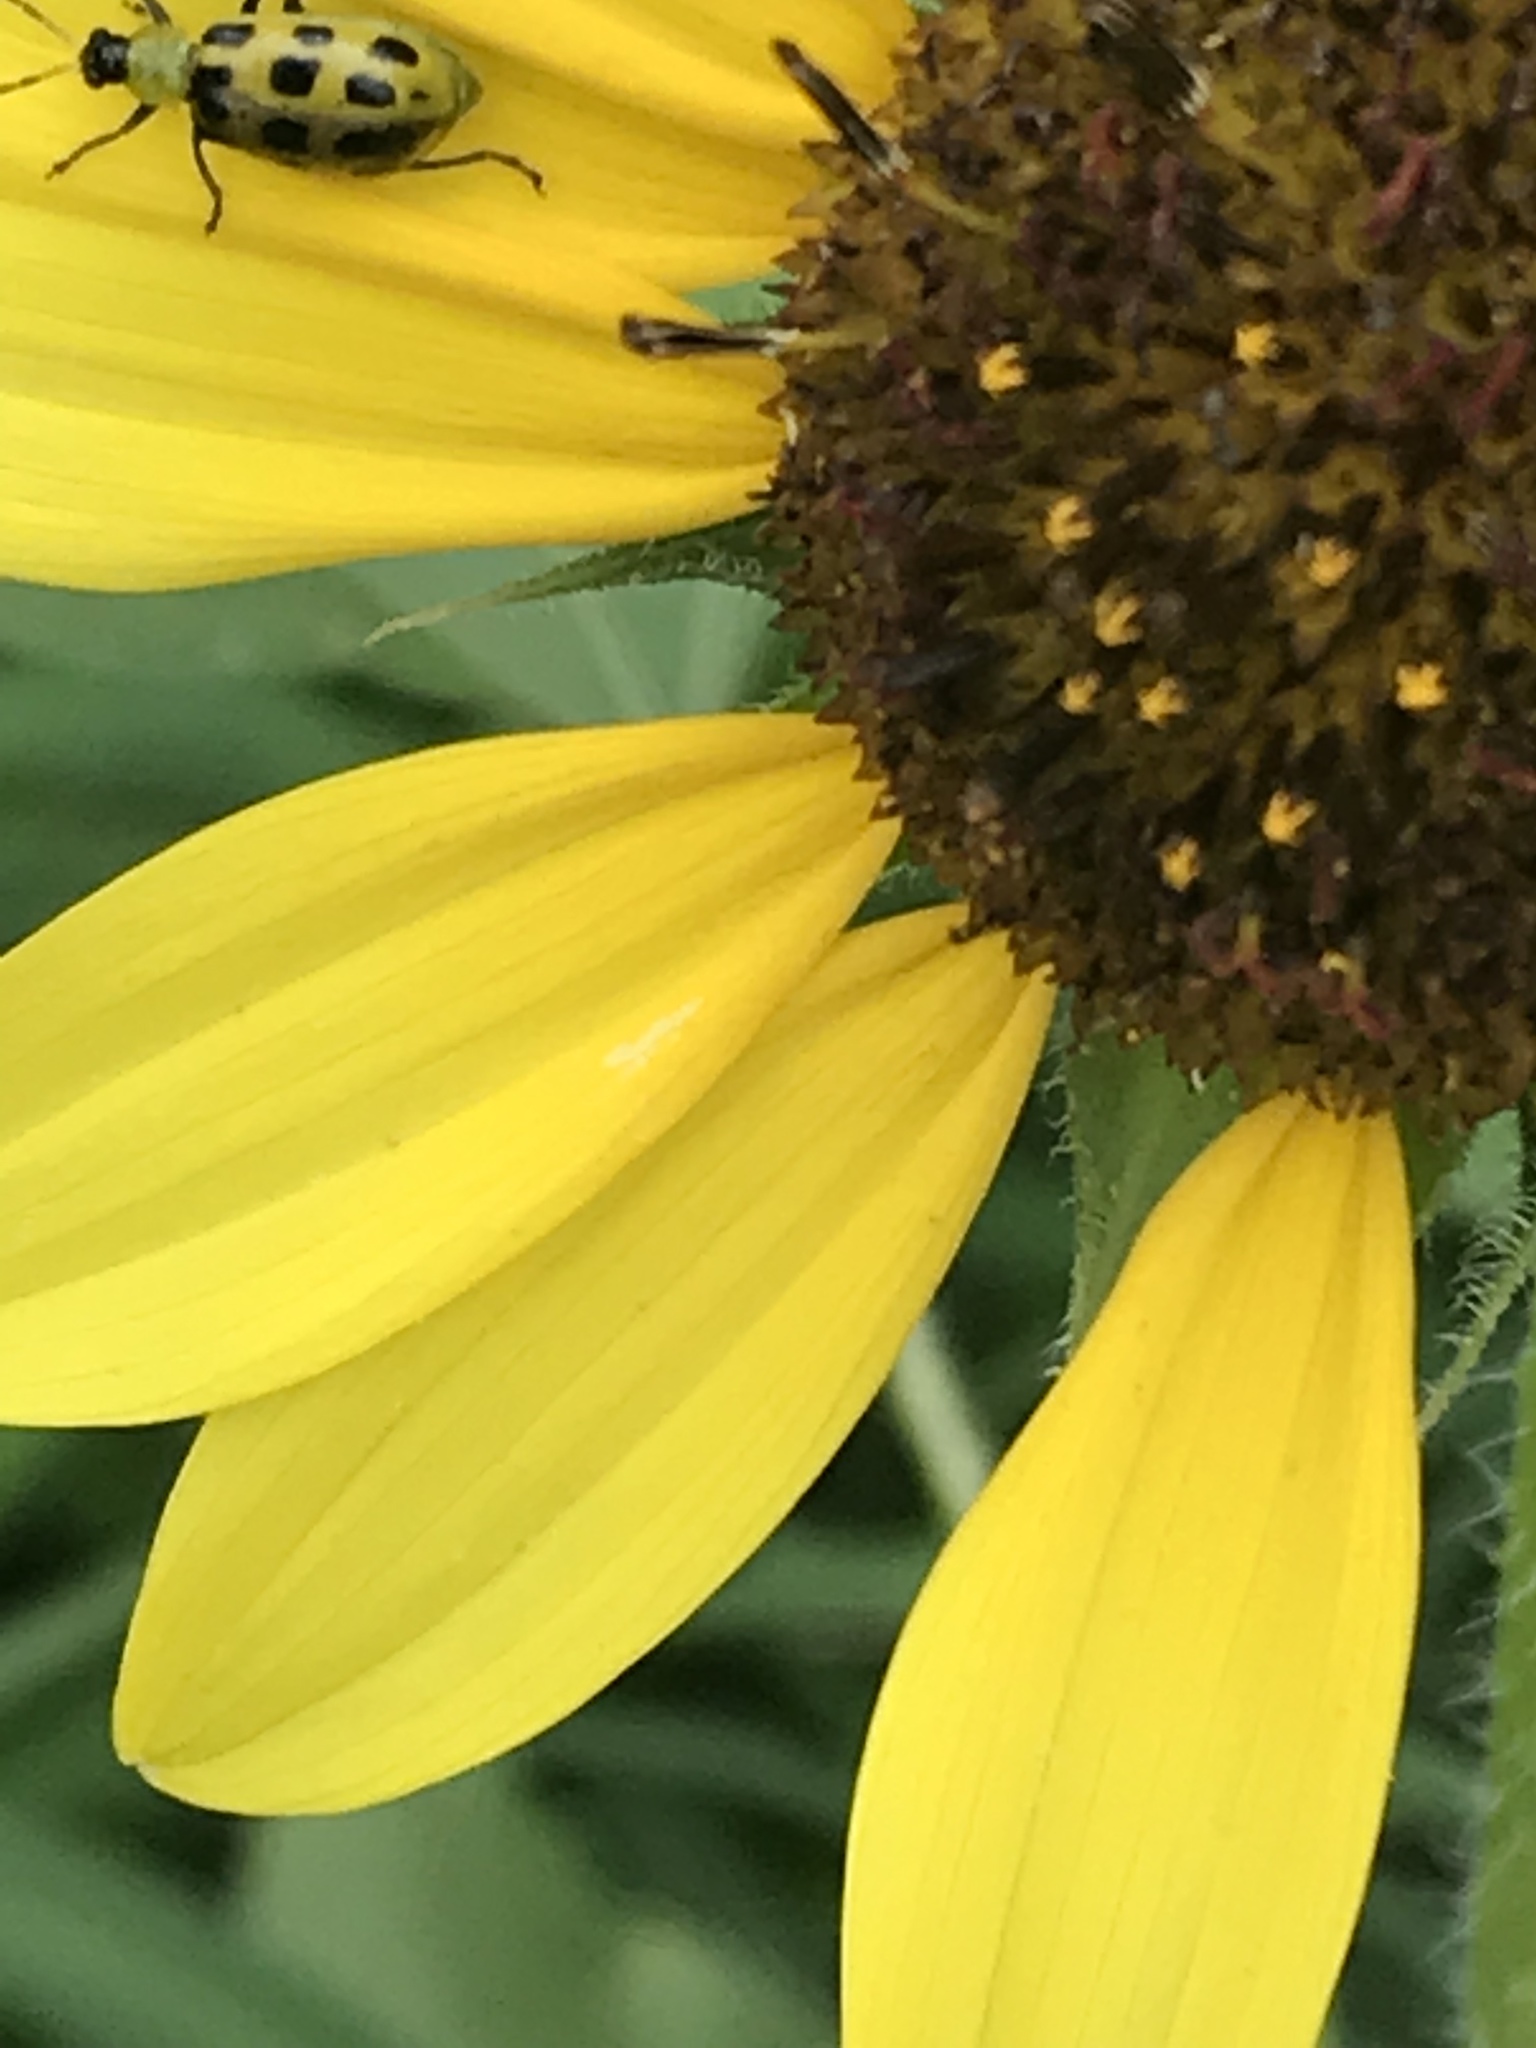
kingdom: Plantae
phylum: Tracheophyta
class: Magnoliopsida
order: Asterales
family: Asteraceae
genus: Helianthus
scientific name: Helianthus annuus
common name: Sunflower
